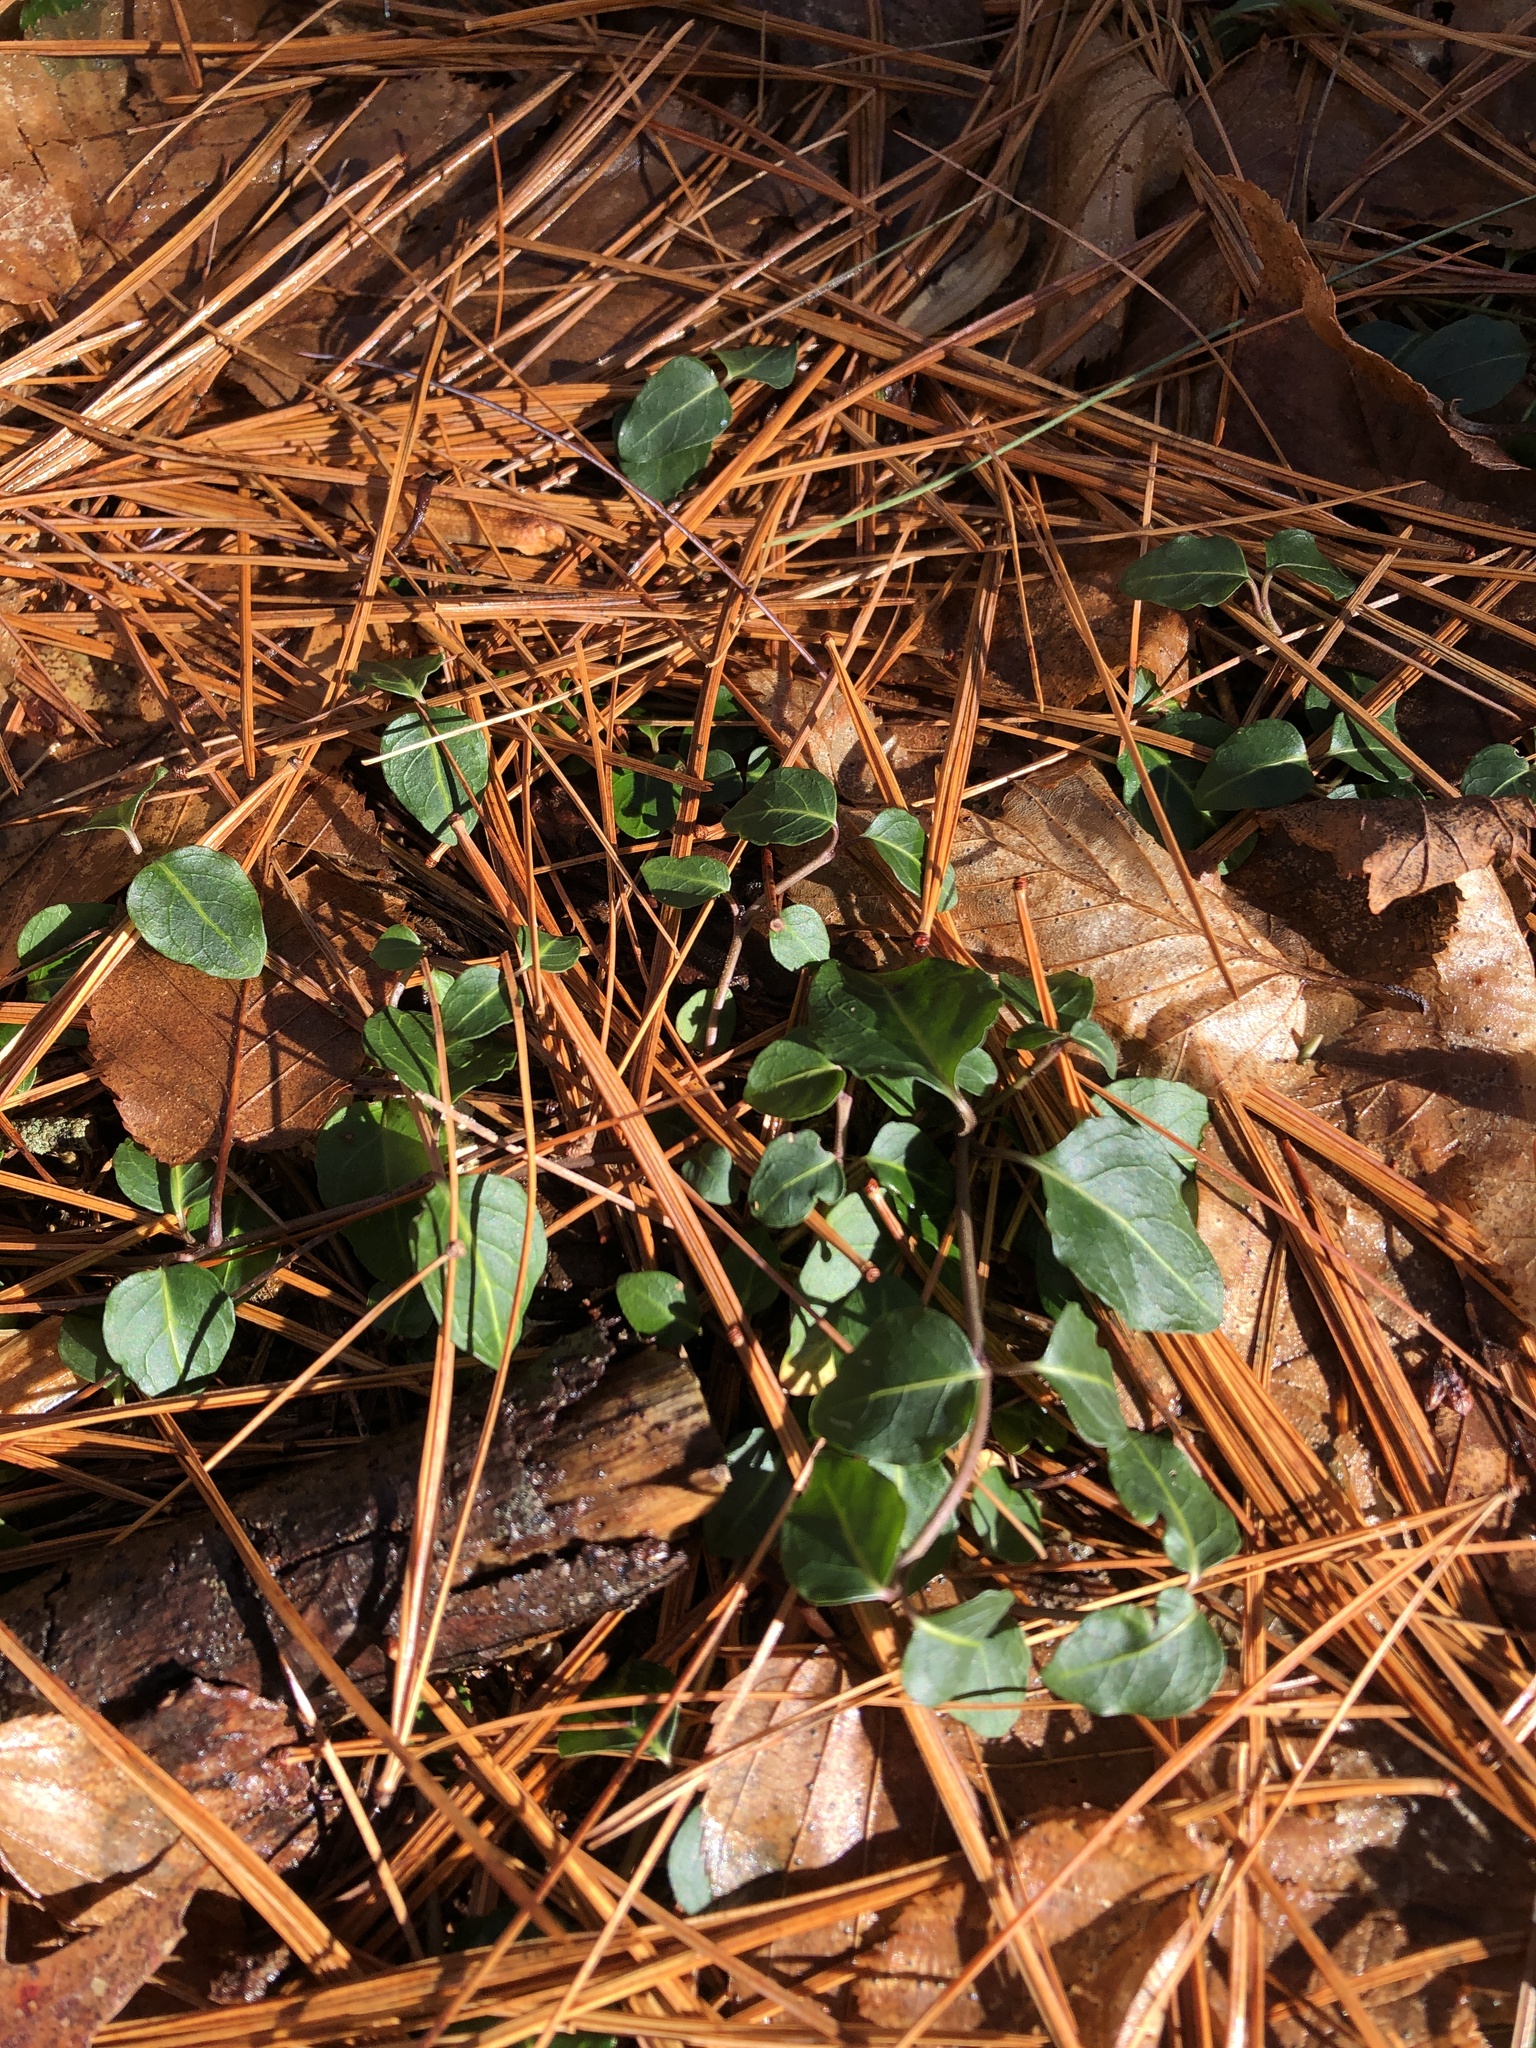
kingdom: Plantae
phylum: Tracheophyta
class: Magnoliopsida
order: Gentianales
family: Rubiaceae
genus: Mitchella
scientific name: Mitchella repens
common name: Partridge-berry
